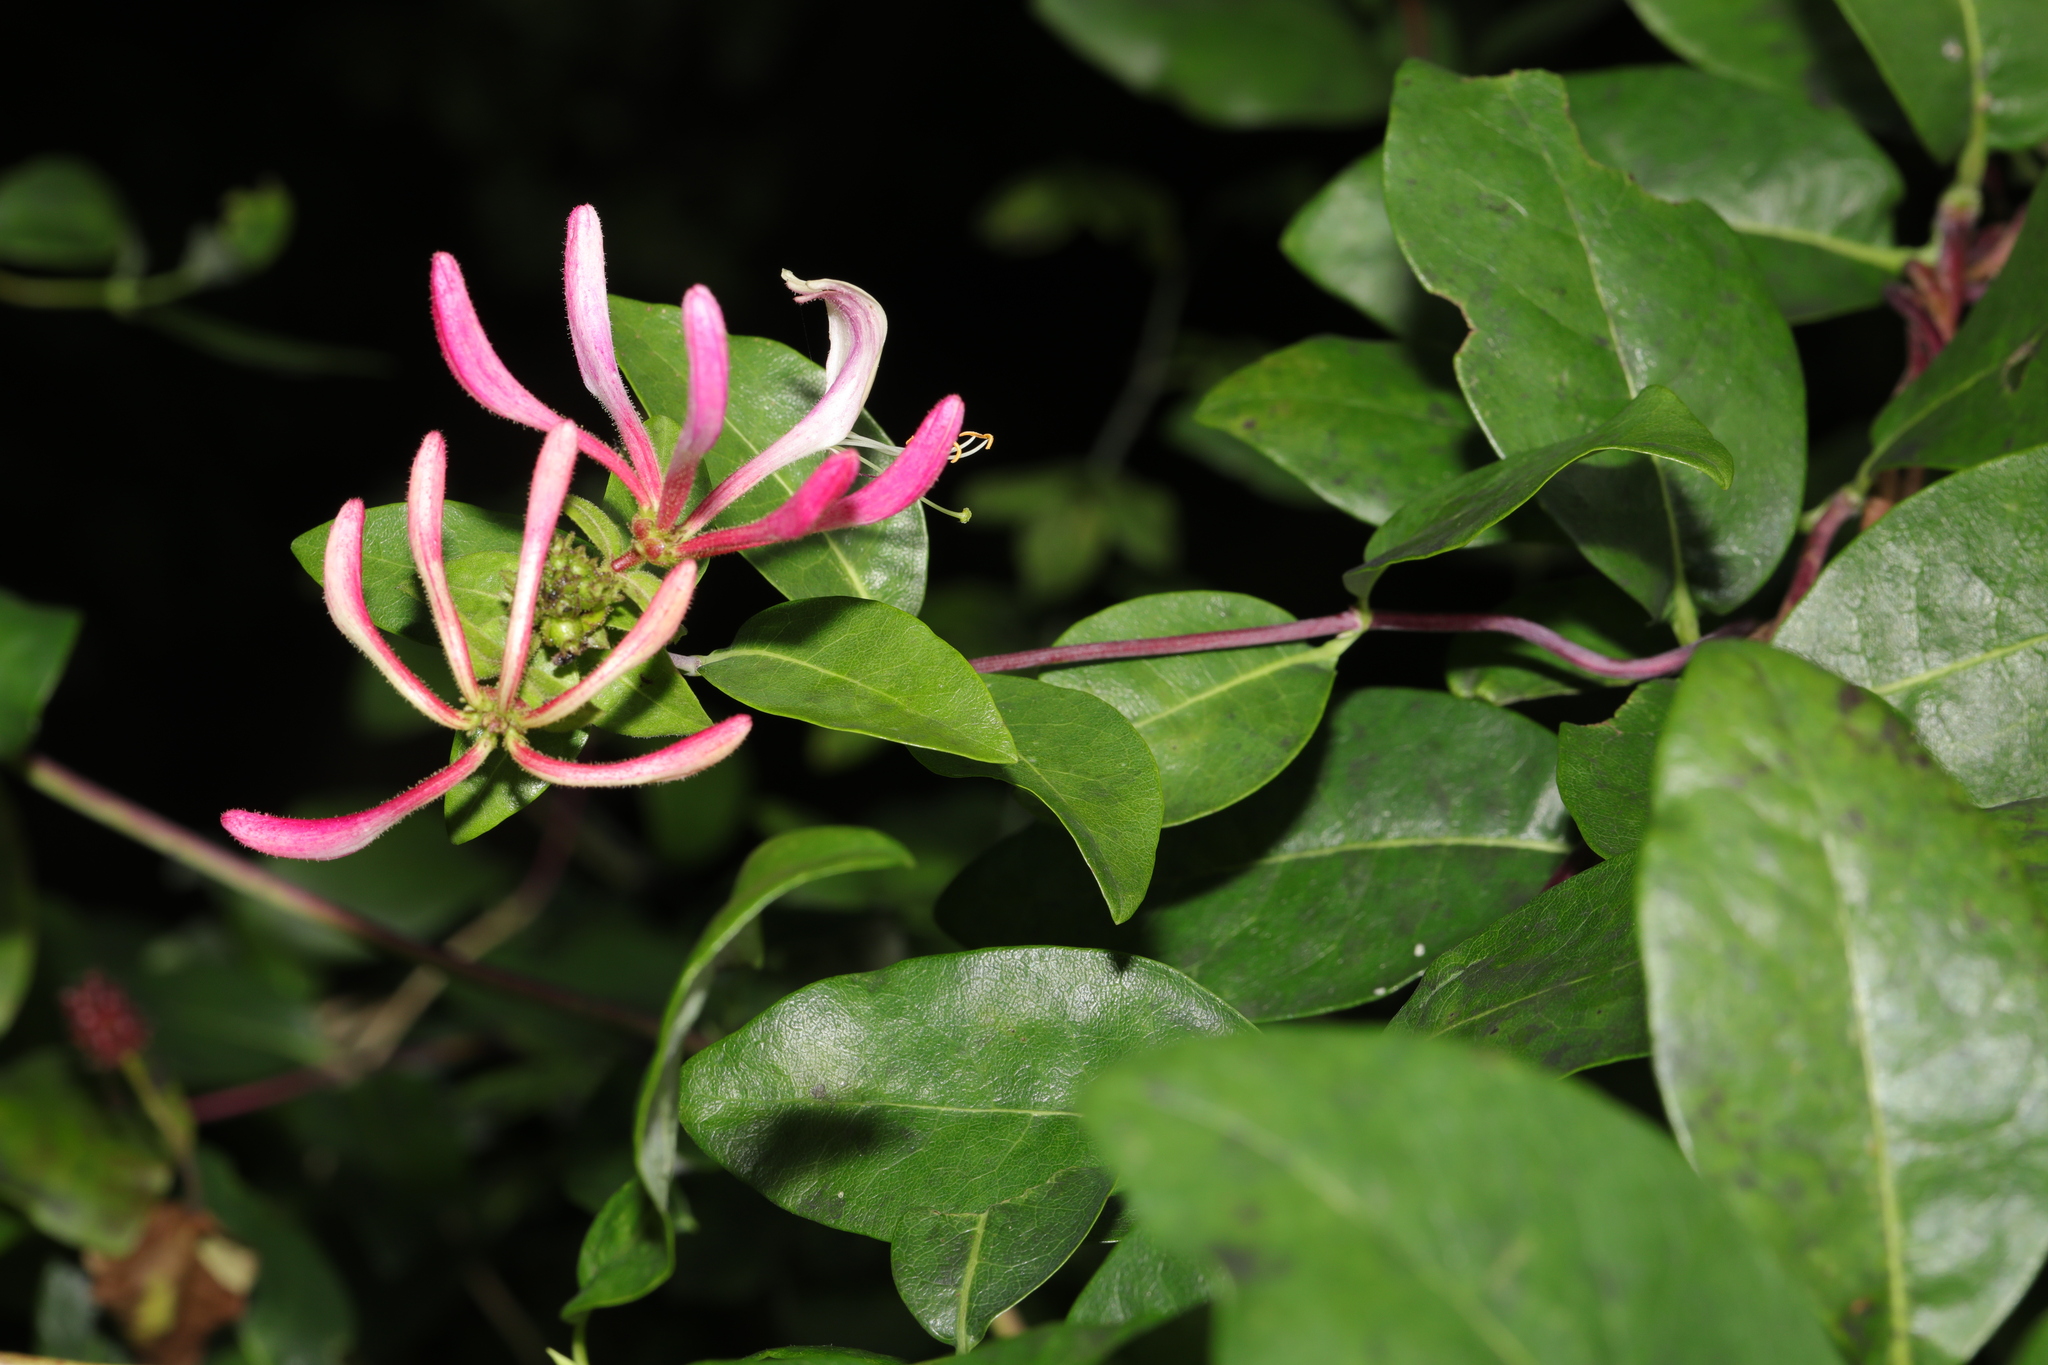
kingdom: Plantae
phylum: Tracheophyta
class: Magnoliopsida
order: Dipsacales
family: Caprifoliaceae
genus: Lonicera
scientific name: Lonicera periclymenum
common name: European honeysuckle
